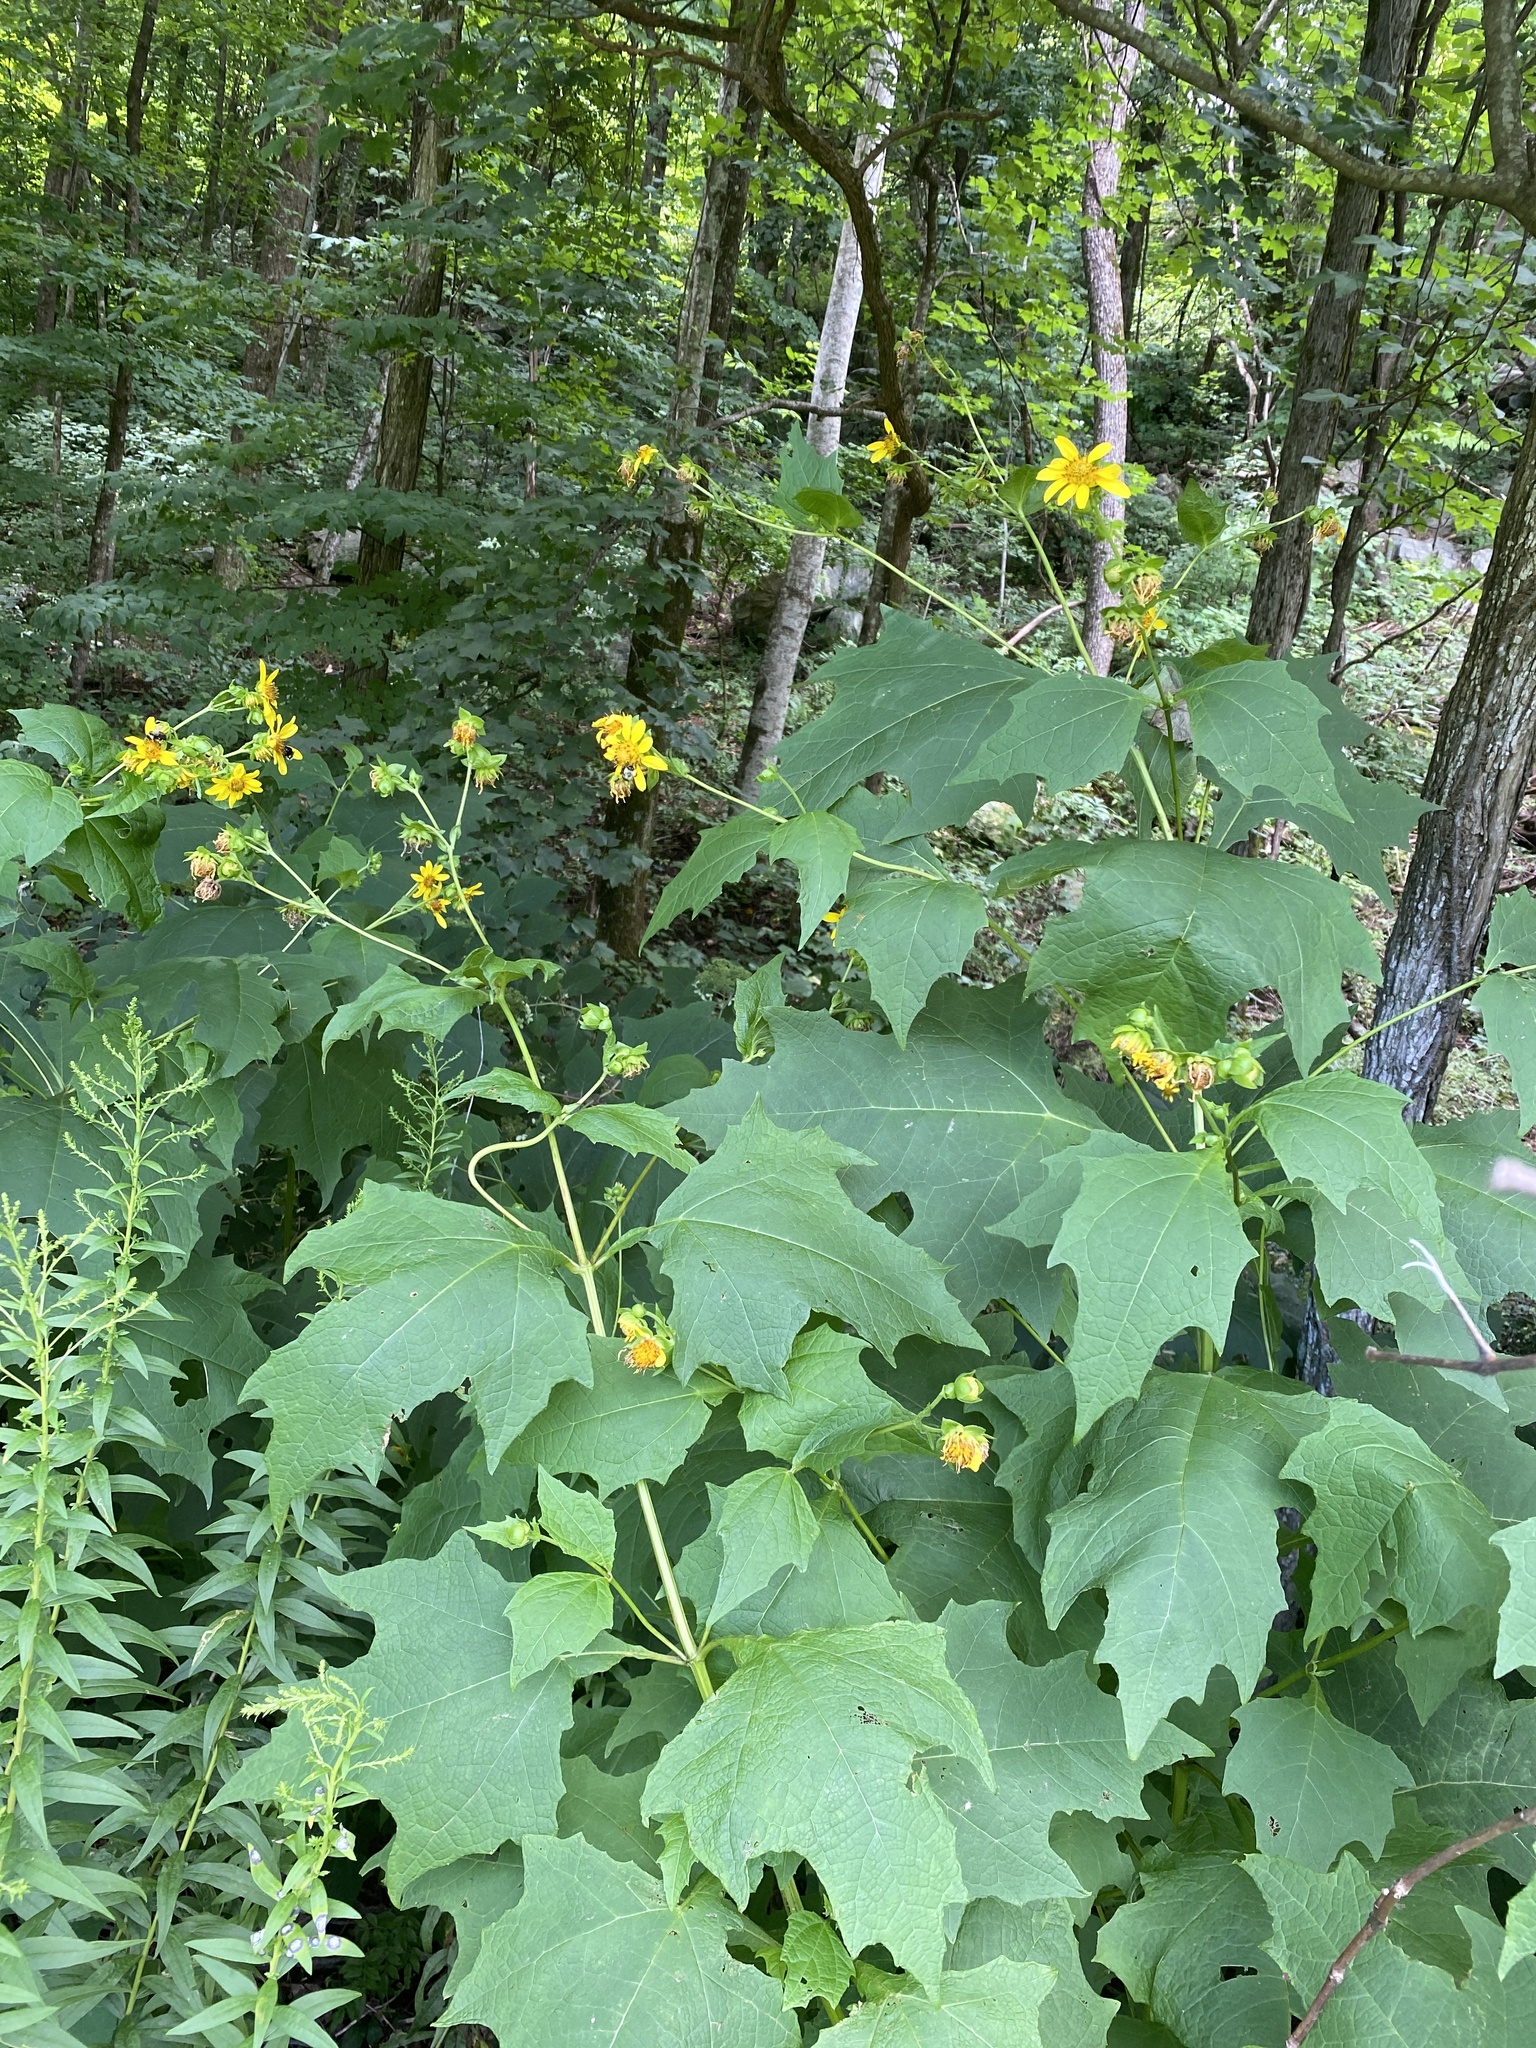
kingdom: Plantae
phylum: Tracheophyta
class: Magnoliopsida
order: Asterales
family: Asteraceae
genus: Smallanthus
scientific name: Smallanthus uvedalia
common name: Bear's-foot
